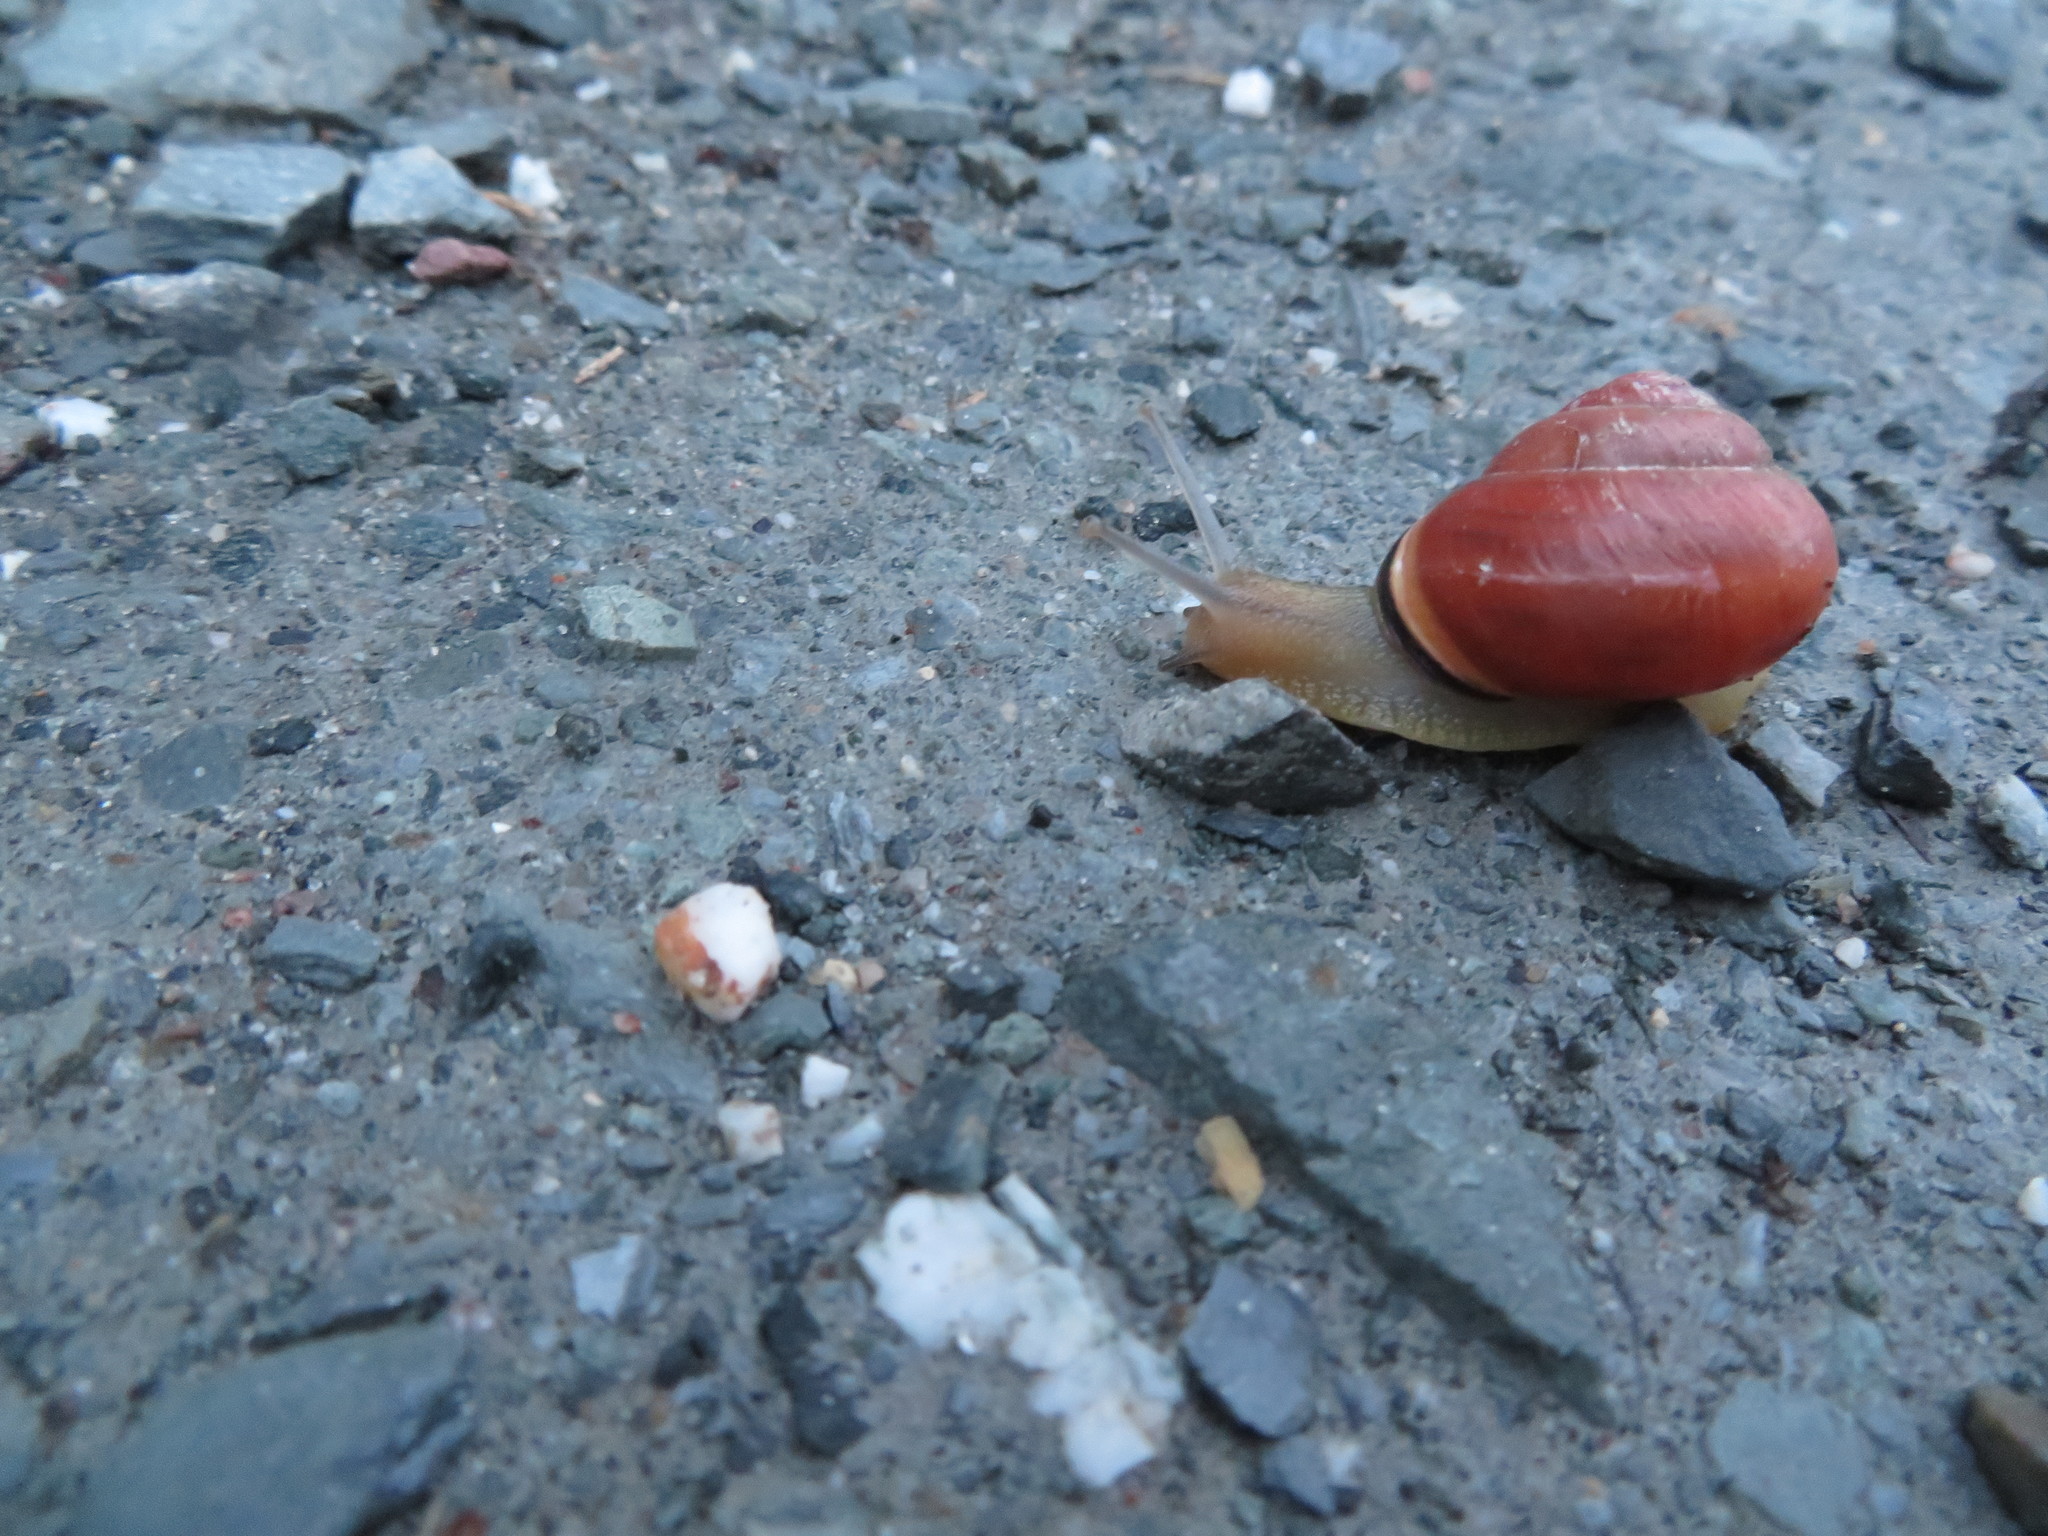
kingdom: Animalia
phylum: Mollusca
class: Gastropoda
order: Stylommatophora
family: Helicidae
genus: Cepaea
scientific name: Cepaea nemoralis
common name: Grovesnail
